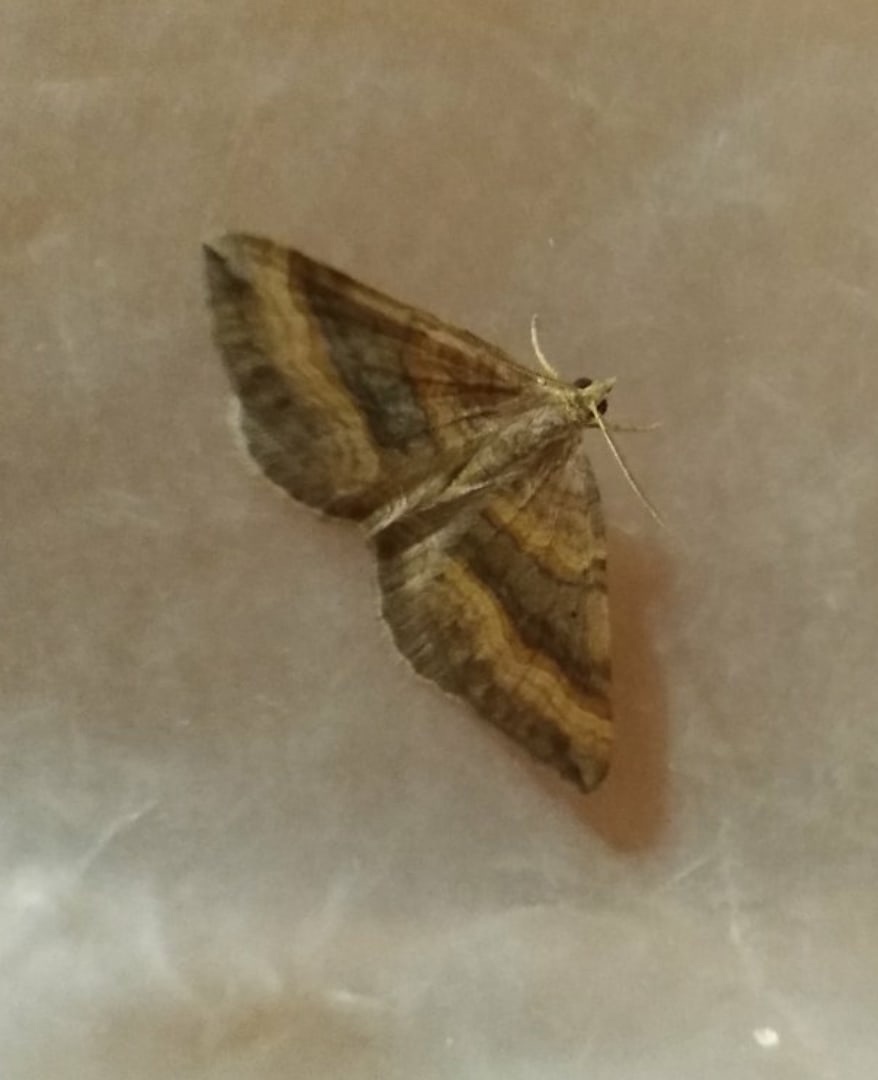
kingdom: Animalia
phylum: Arthropoda
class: Insecta
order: Lepidoptera
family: Geometridae
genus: Scotopteryx
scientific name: Scotopteryx chenopodiata
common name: Shaded broad-bar
